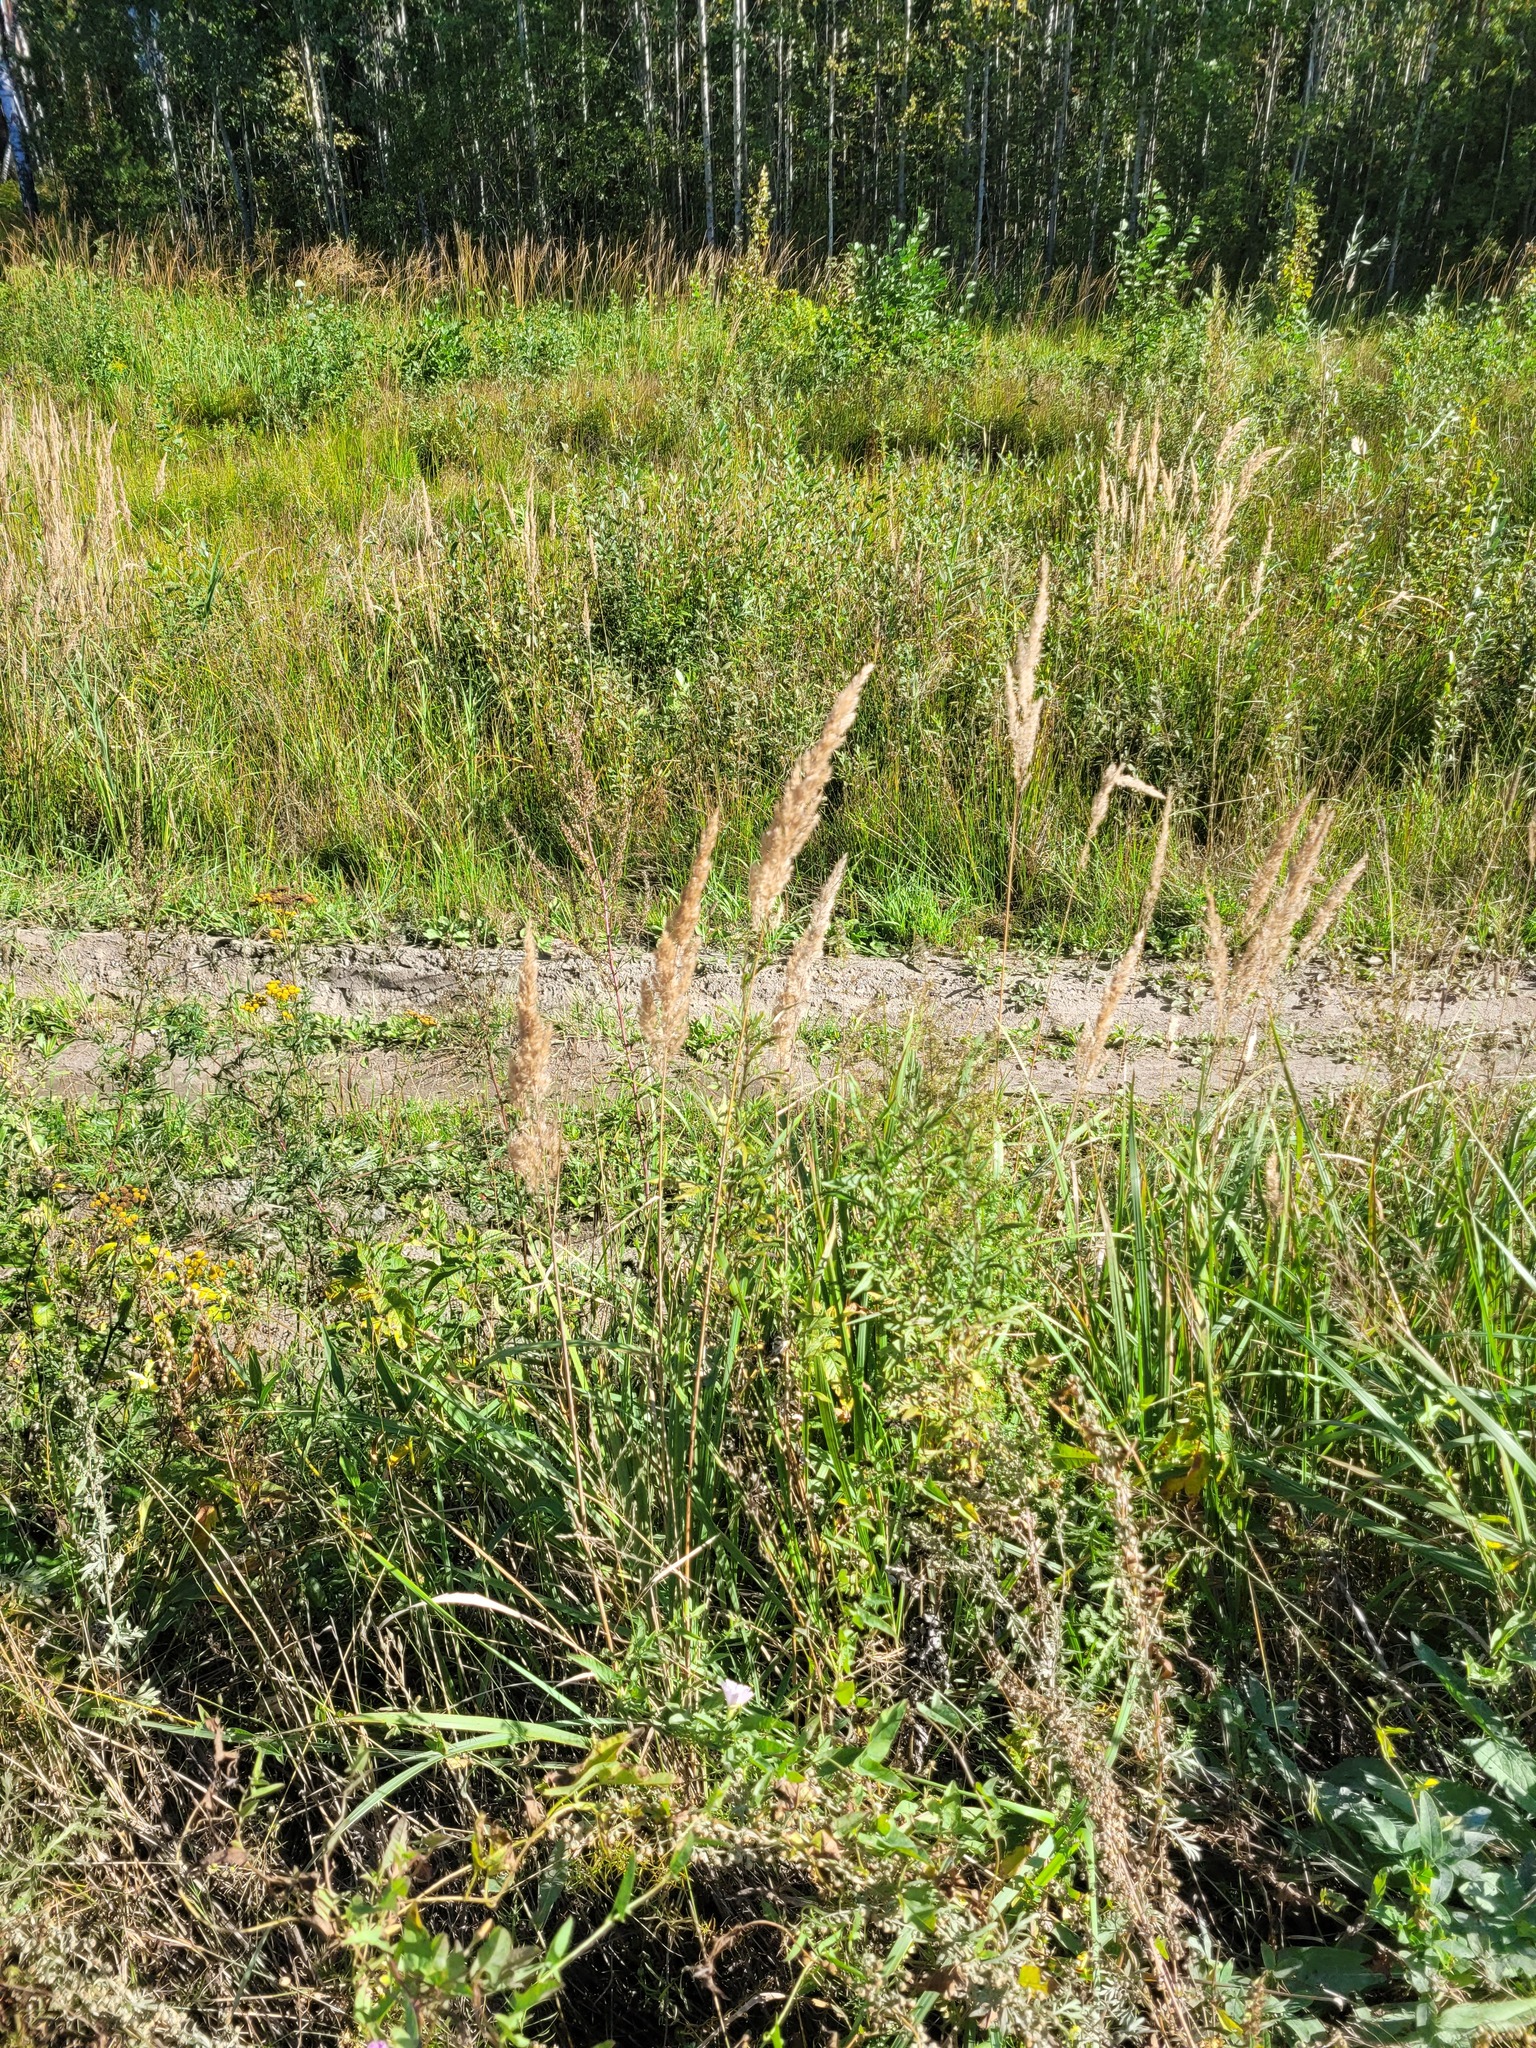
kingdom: Plantae
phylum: Tracheophyta
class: Liliopsida
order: Poales
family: Poaceae
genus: Calamagrostis
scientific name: Calamagrostis epigejos
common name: Wood small-reed
